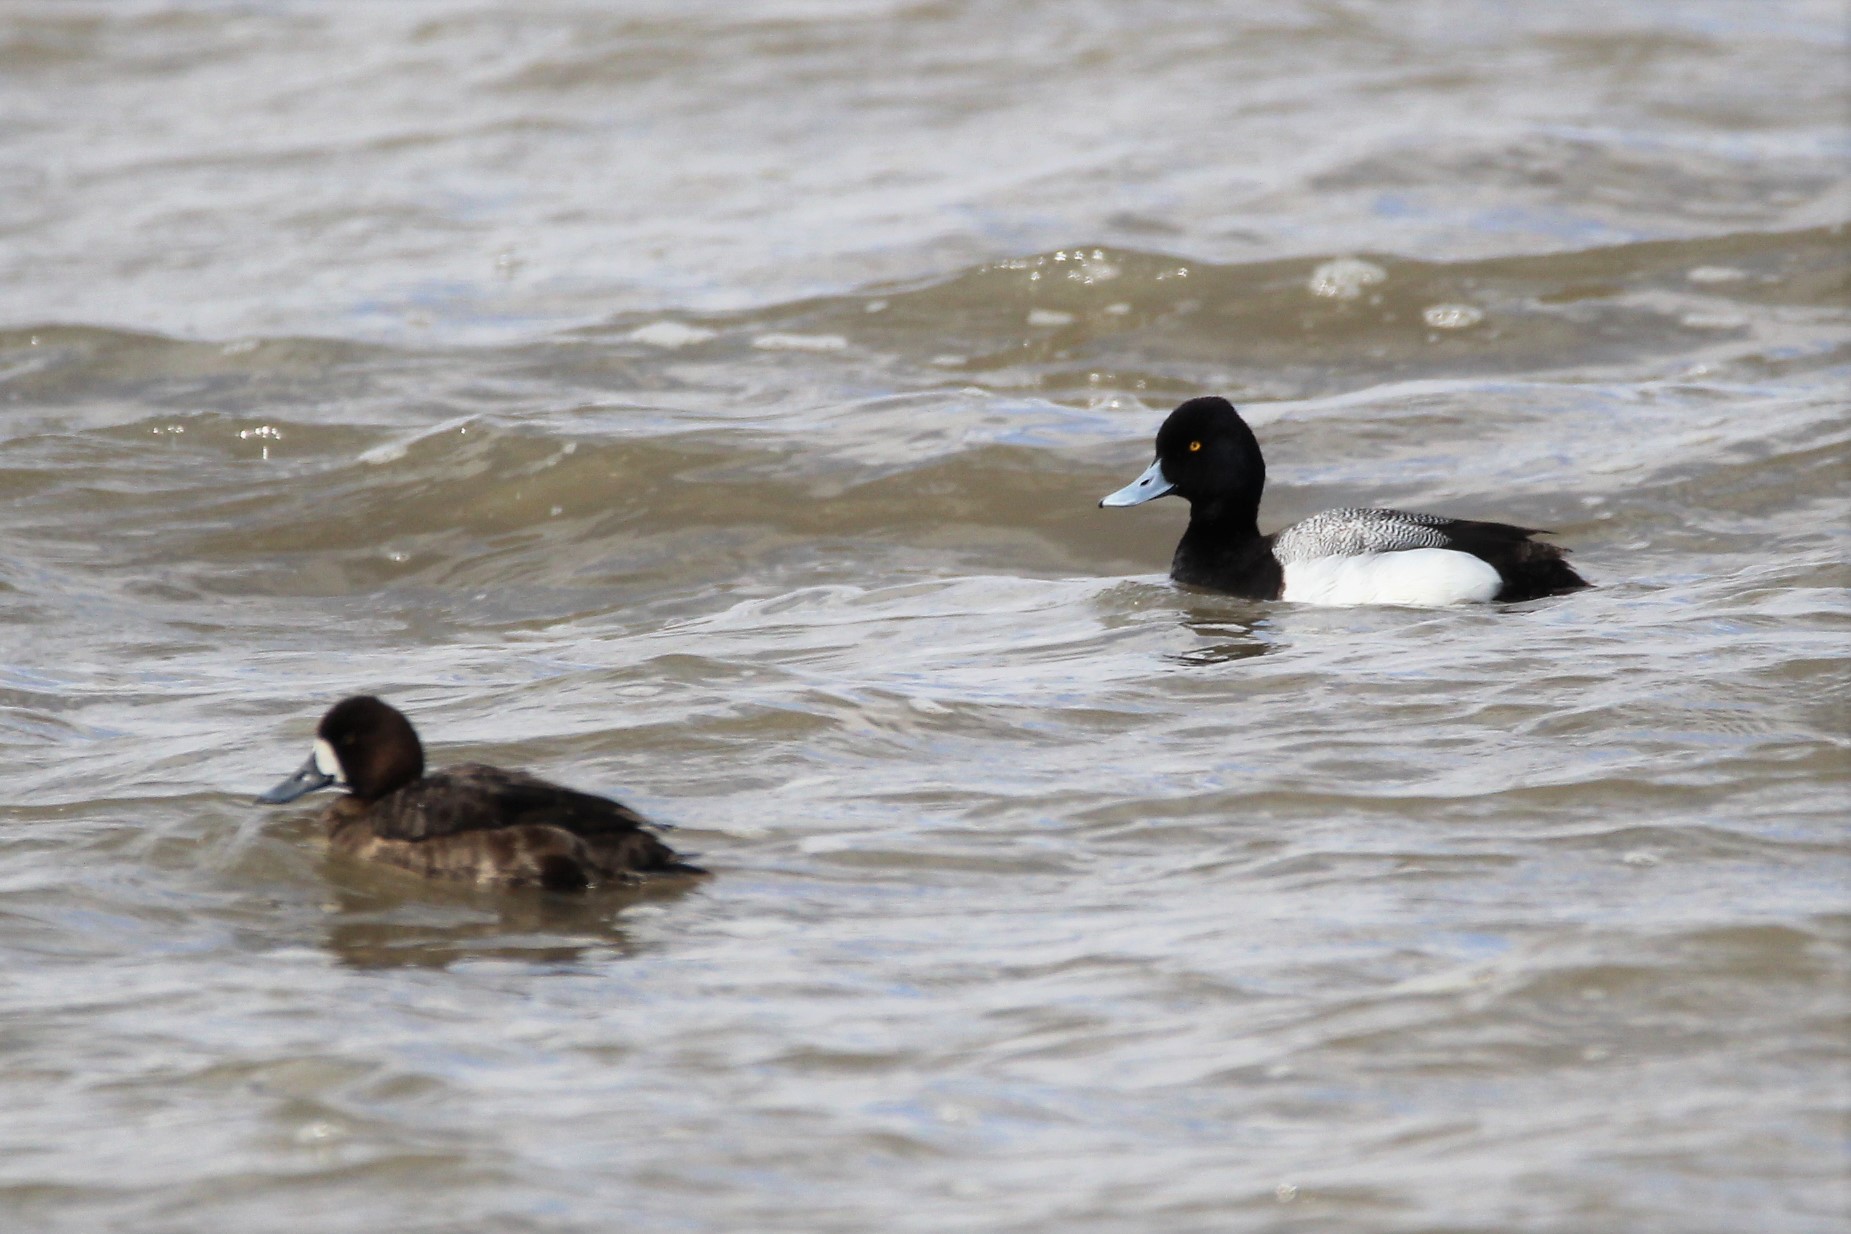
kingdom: Animalia
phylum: Chordata
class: Aves
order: Anseriformes
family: Anatidae
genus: Aythya
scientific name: Aythya affinis
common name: Lesser scaup
